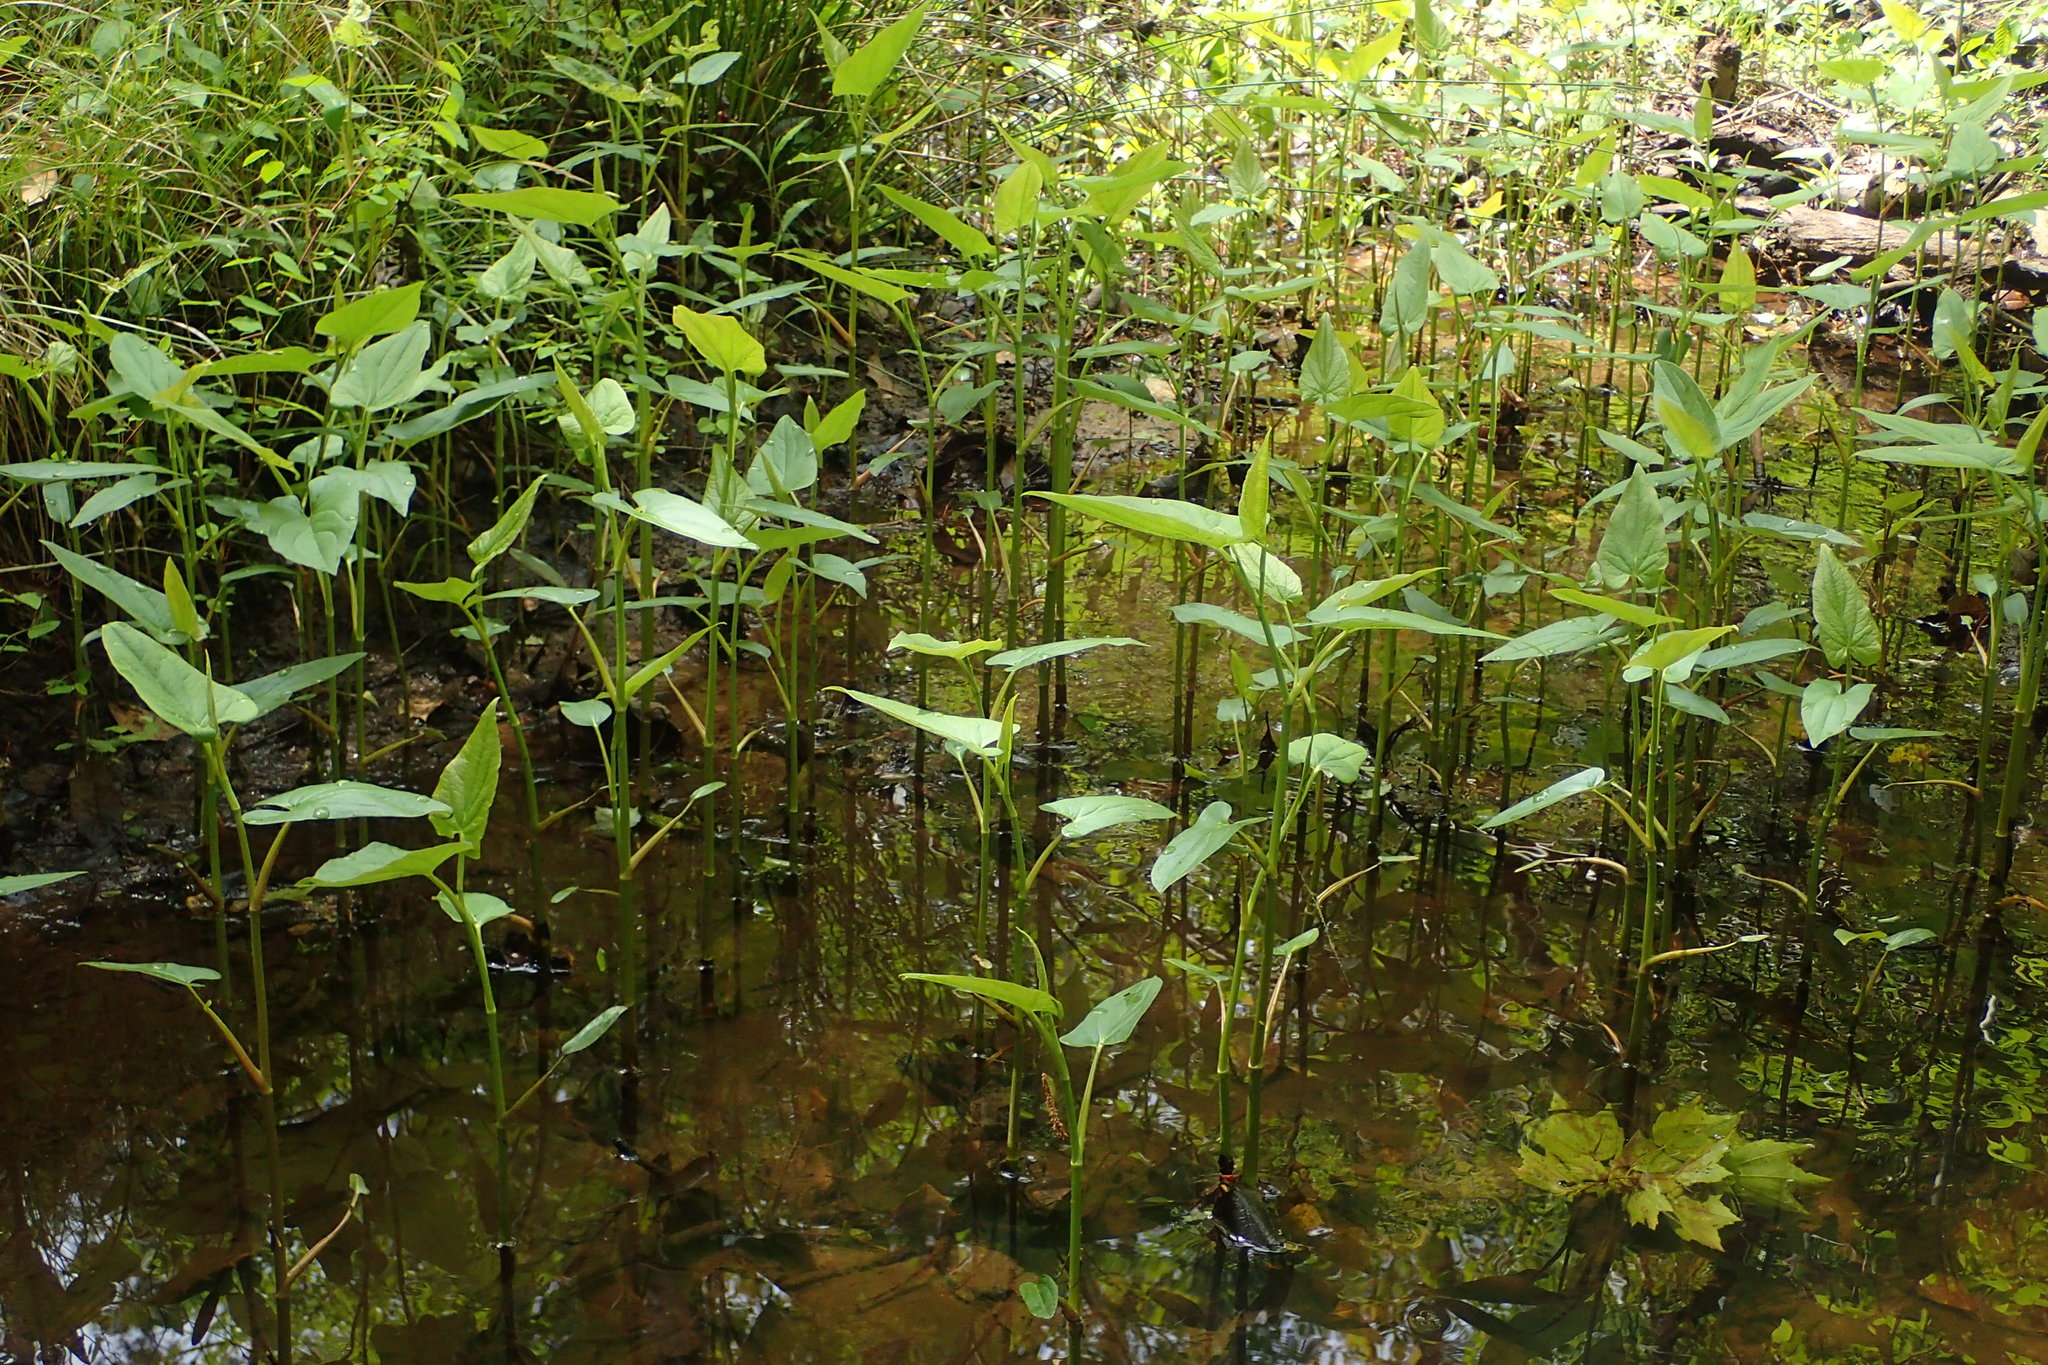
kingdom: Plantae
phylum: Tracheophyta
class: Magnoliopsida
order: Piperales
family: Saururaceae
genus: Saururus
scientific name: Saururus cernuus
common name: Lizard's-tail
